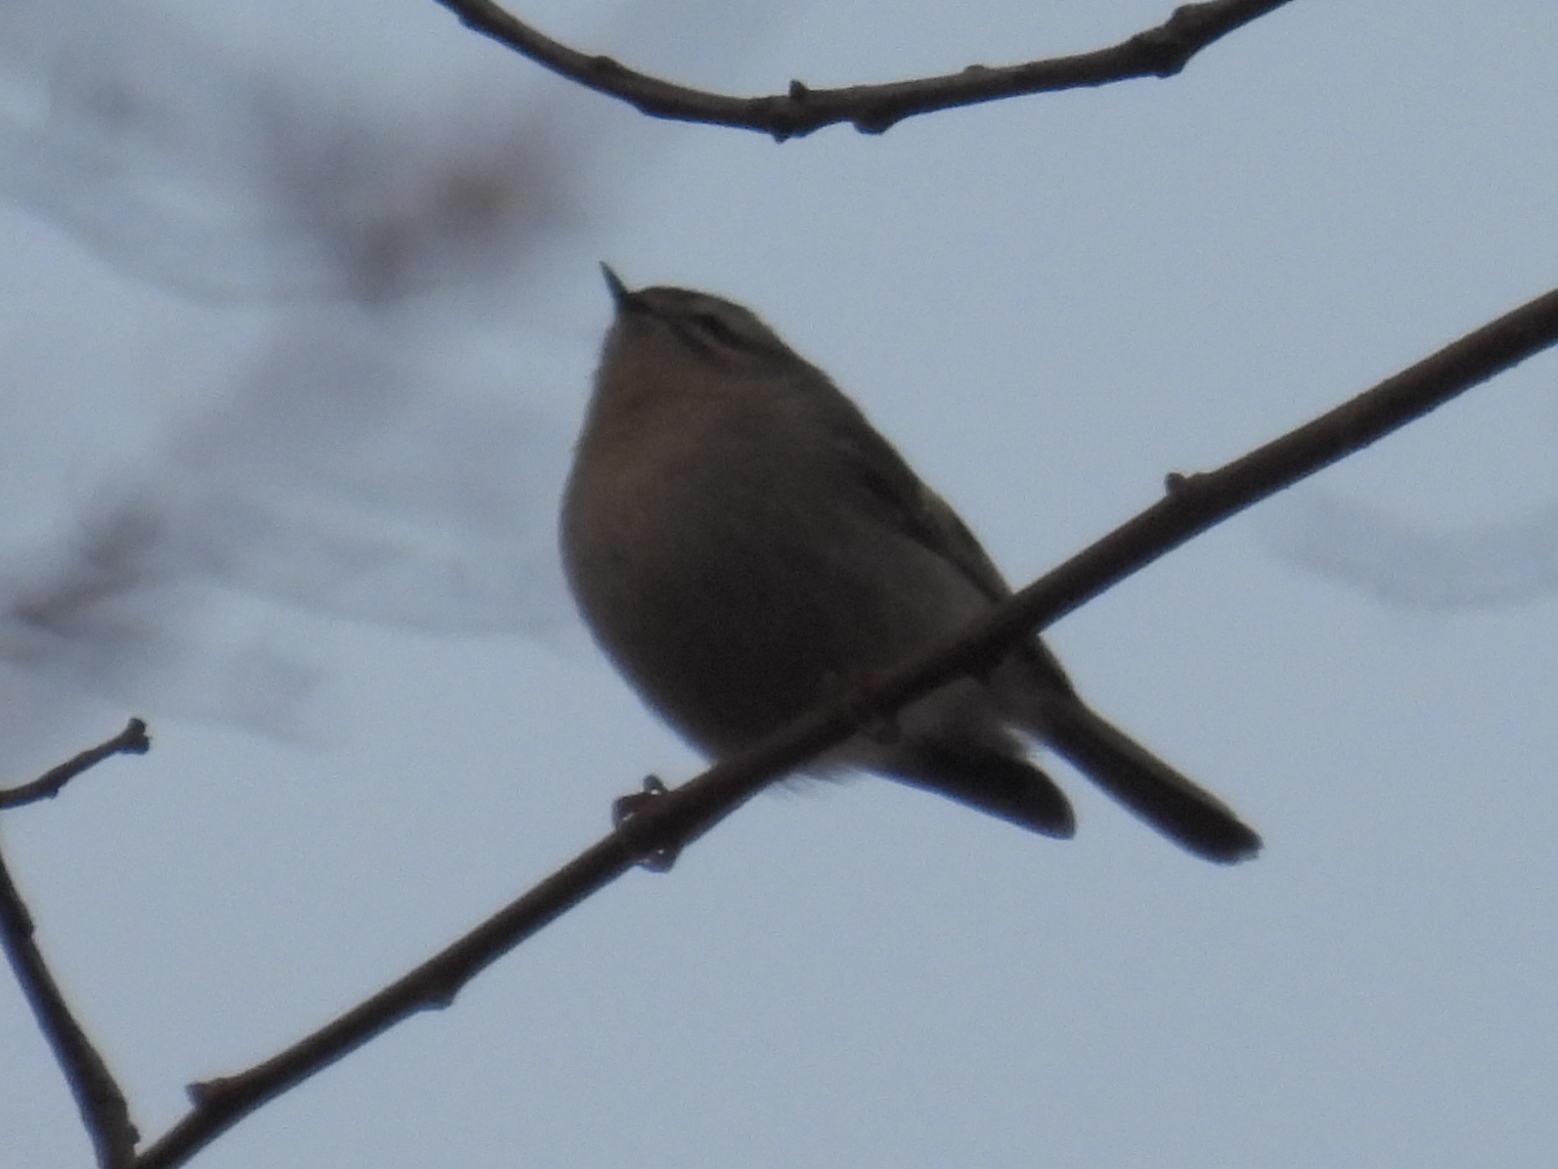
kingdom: Animalia
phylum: Chordata
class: Aves
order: Passeriformes
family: Regulidae
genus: Regulus
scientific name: Regulus satrapa
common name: Golden-crowned kinglet
